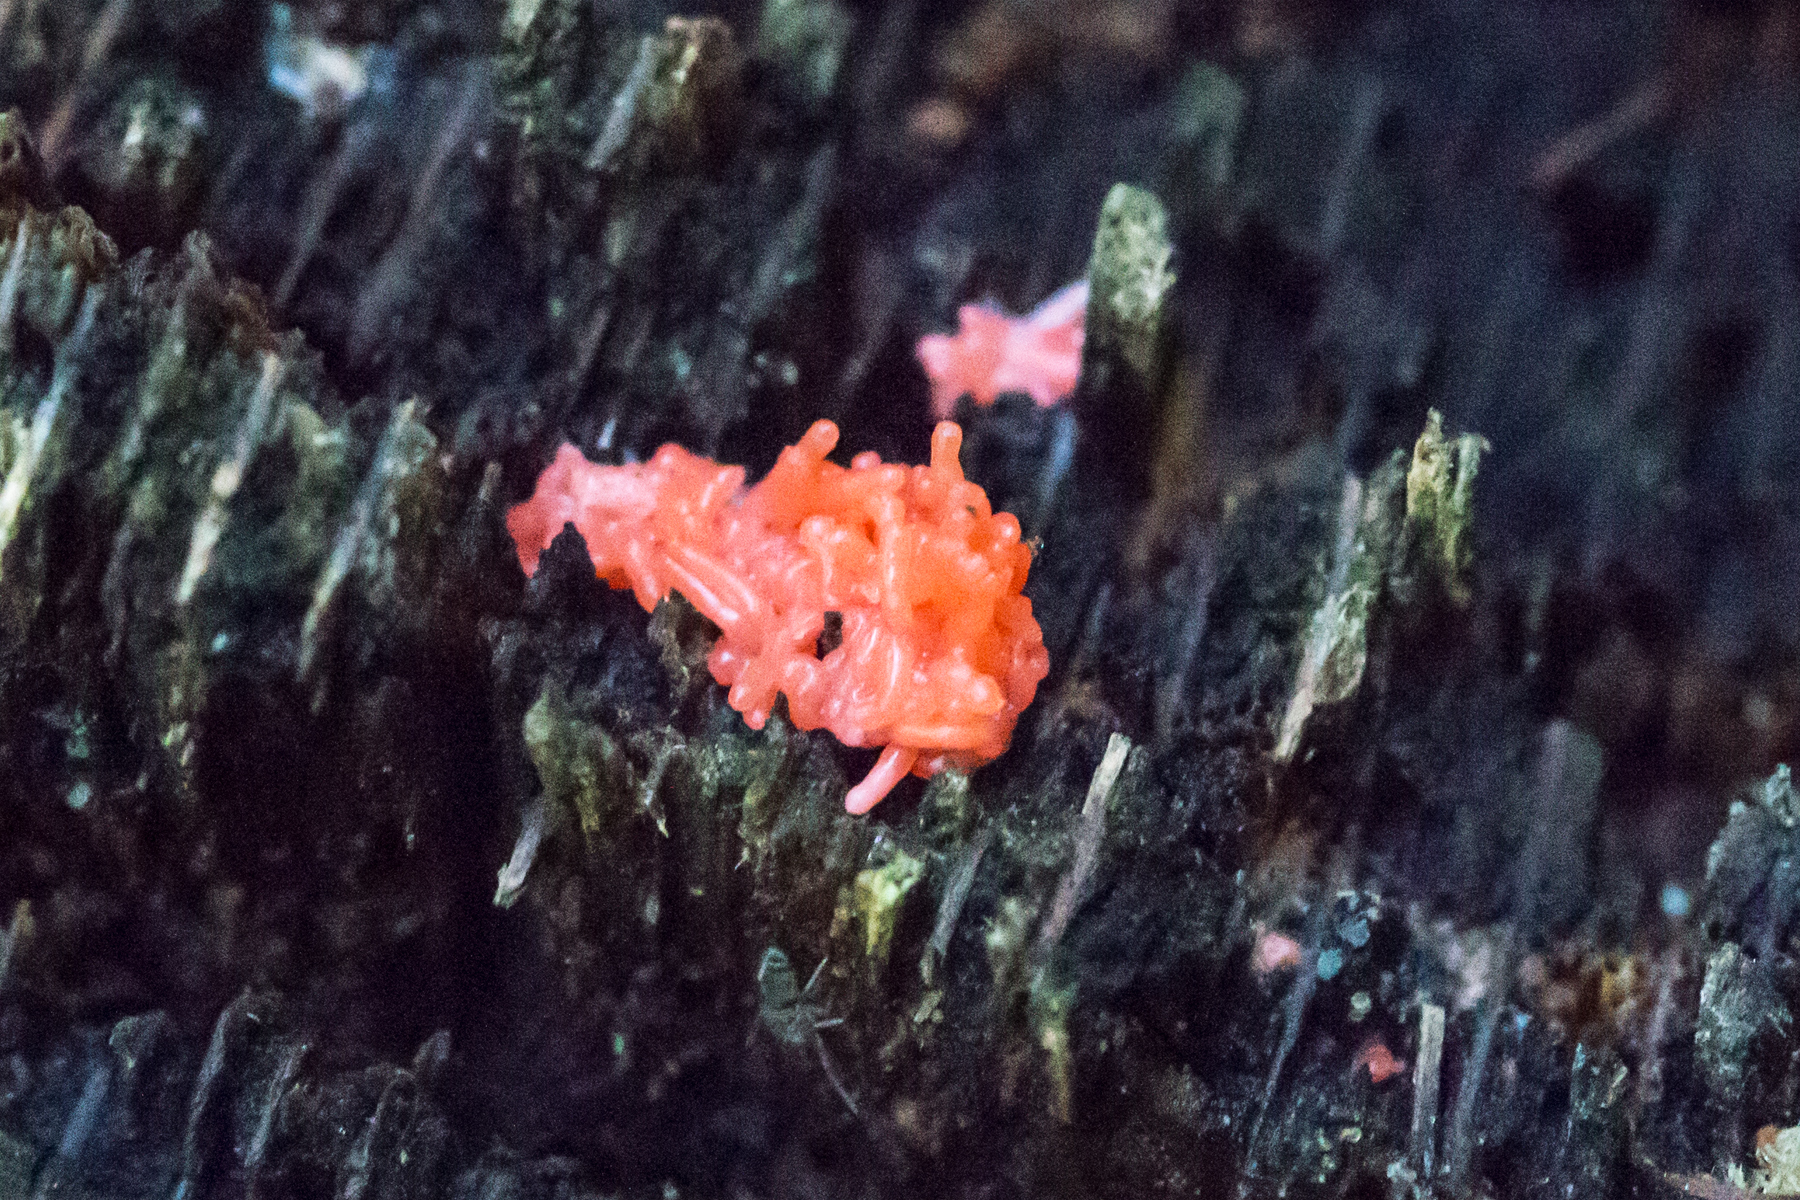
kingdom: Protozoa
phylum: Mycetozoa
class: Myxomycetes
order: Cribrariales
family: Tubiferaceae
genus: Tubifera
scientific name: Tubifera ferruginosa
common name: Red raspberry slime mold
